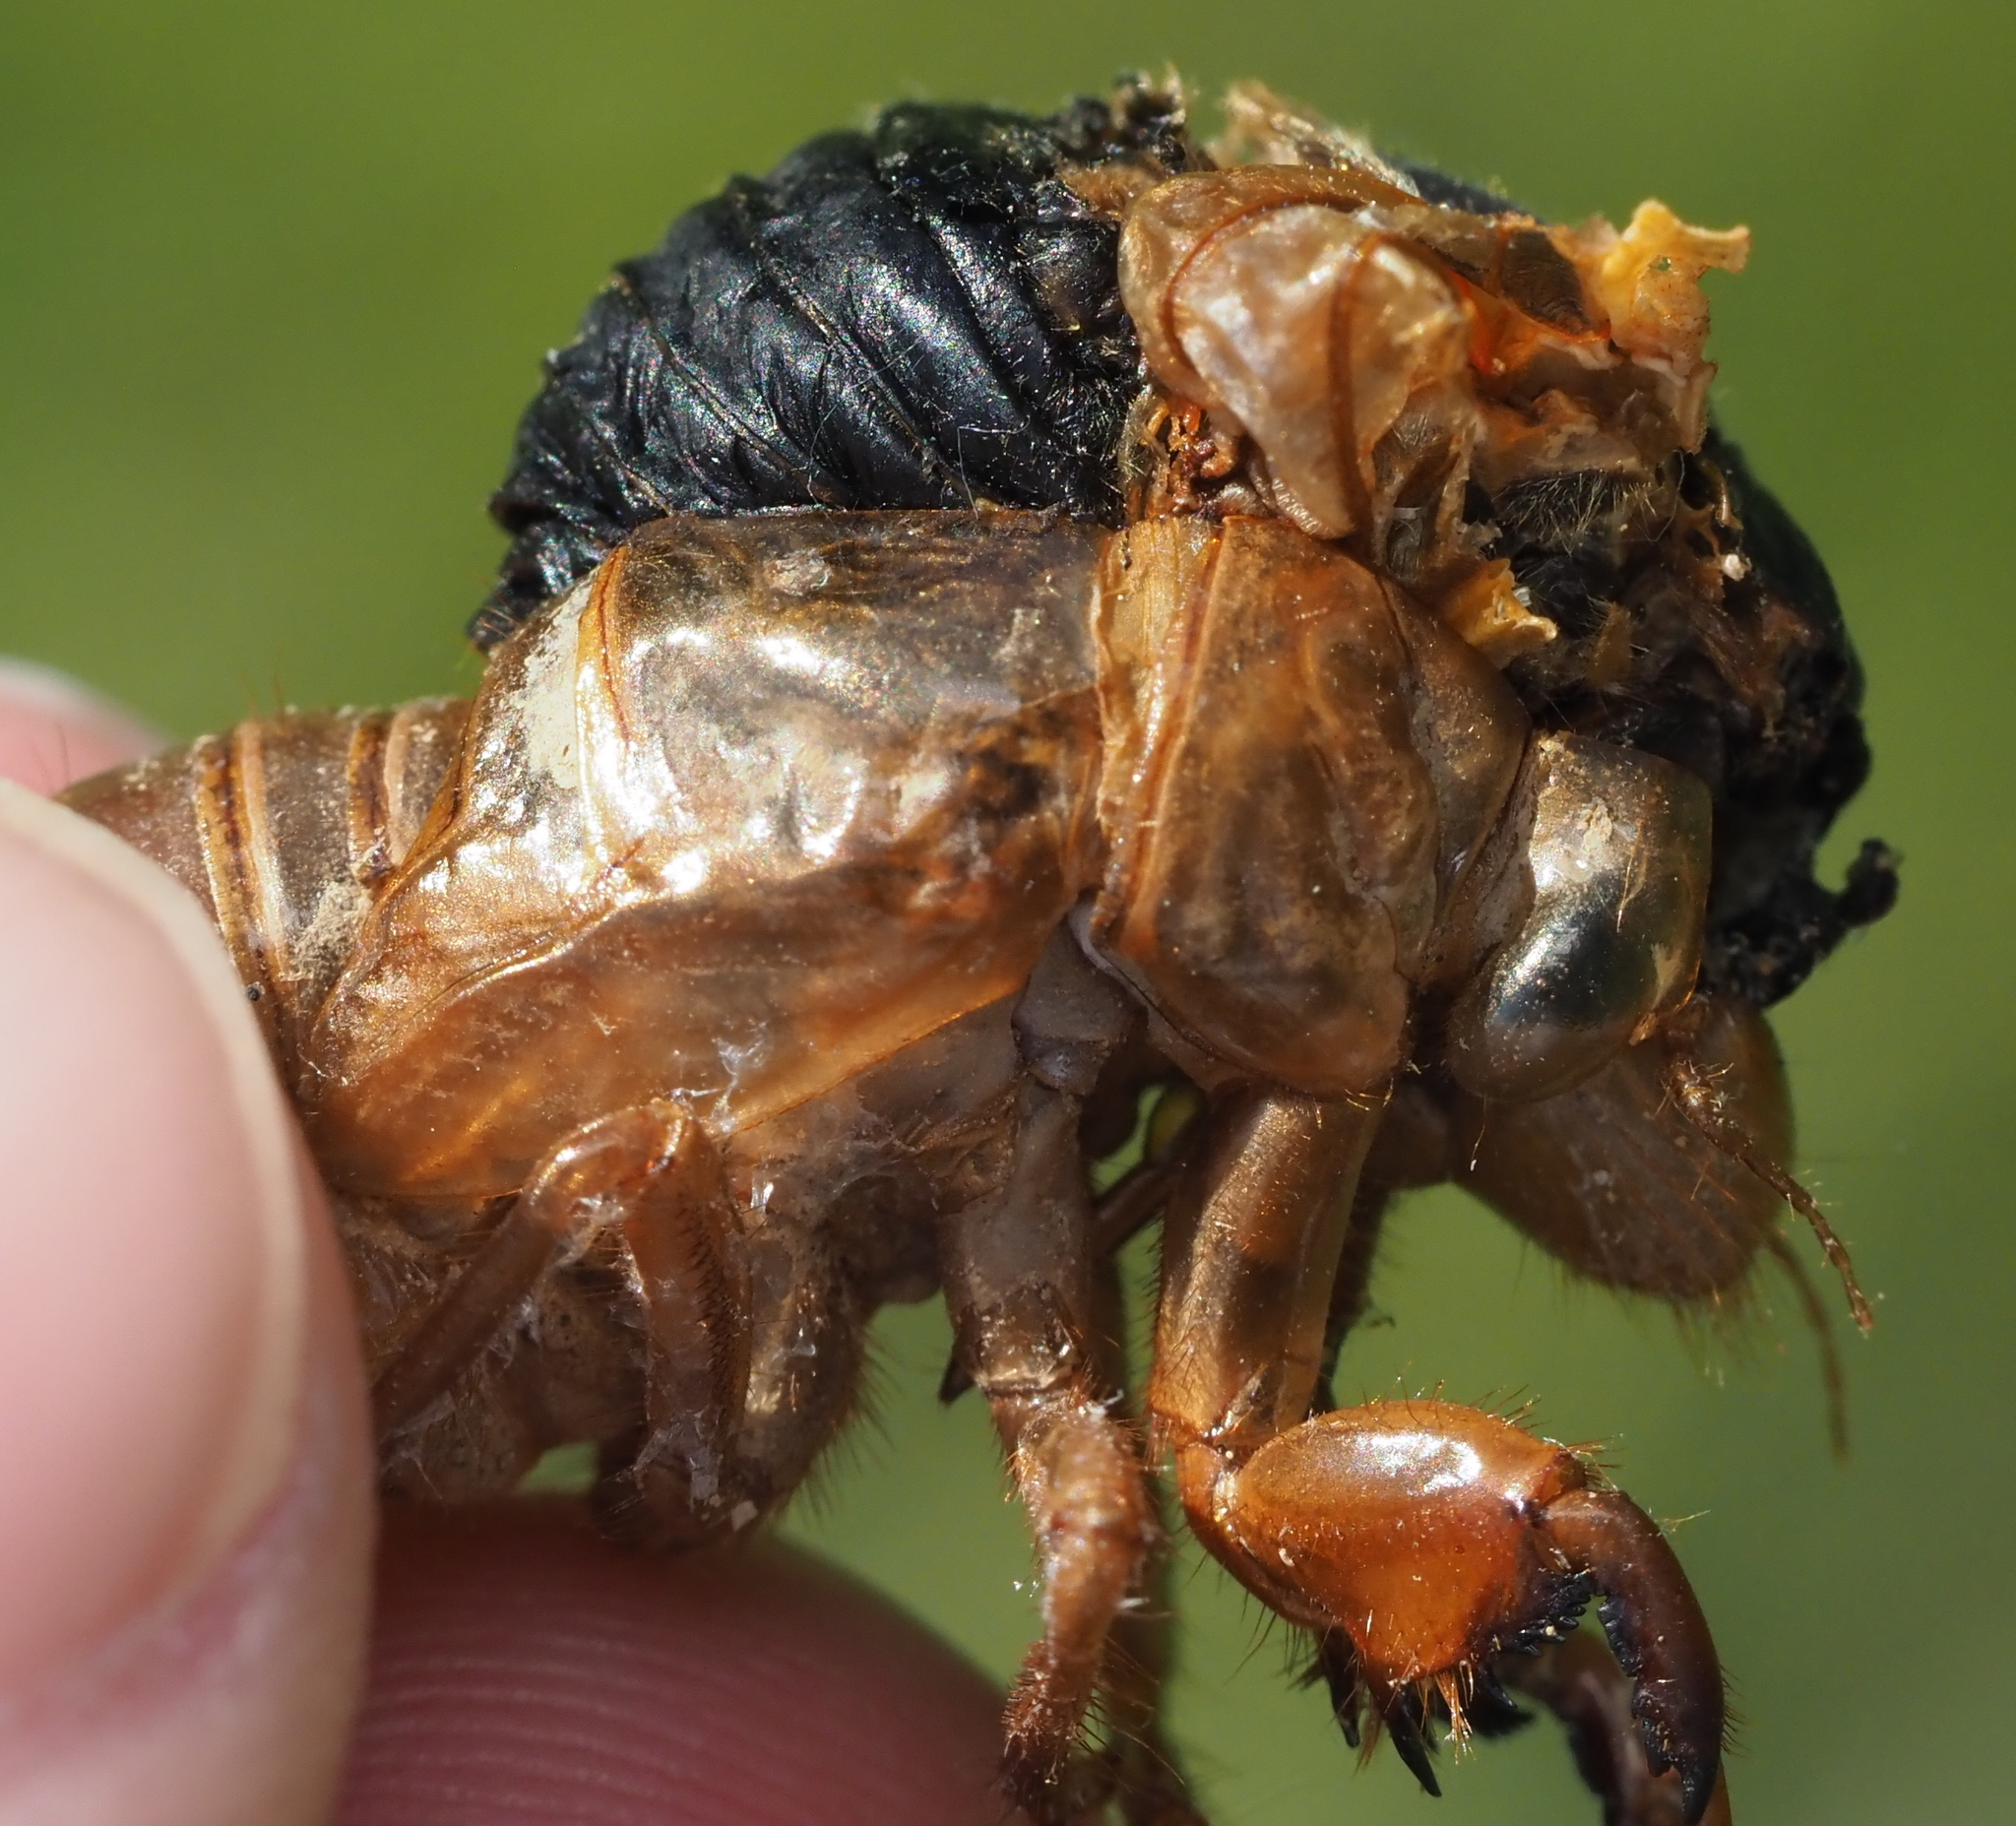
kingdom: Animalia
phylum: Arthropoda
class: Insecta
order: Hemiptera
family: Cicadidae
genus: Magicicada
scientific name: Magicicada septendecim
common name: Periodical cicada
